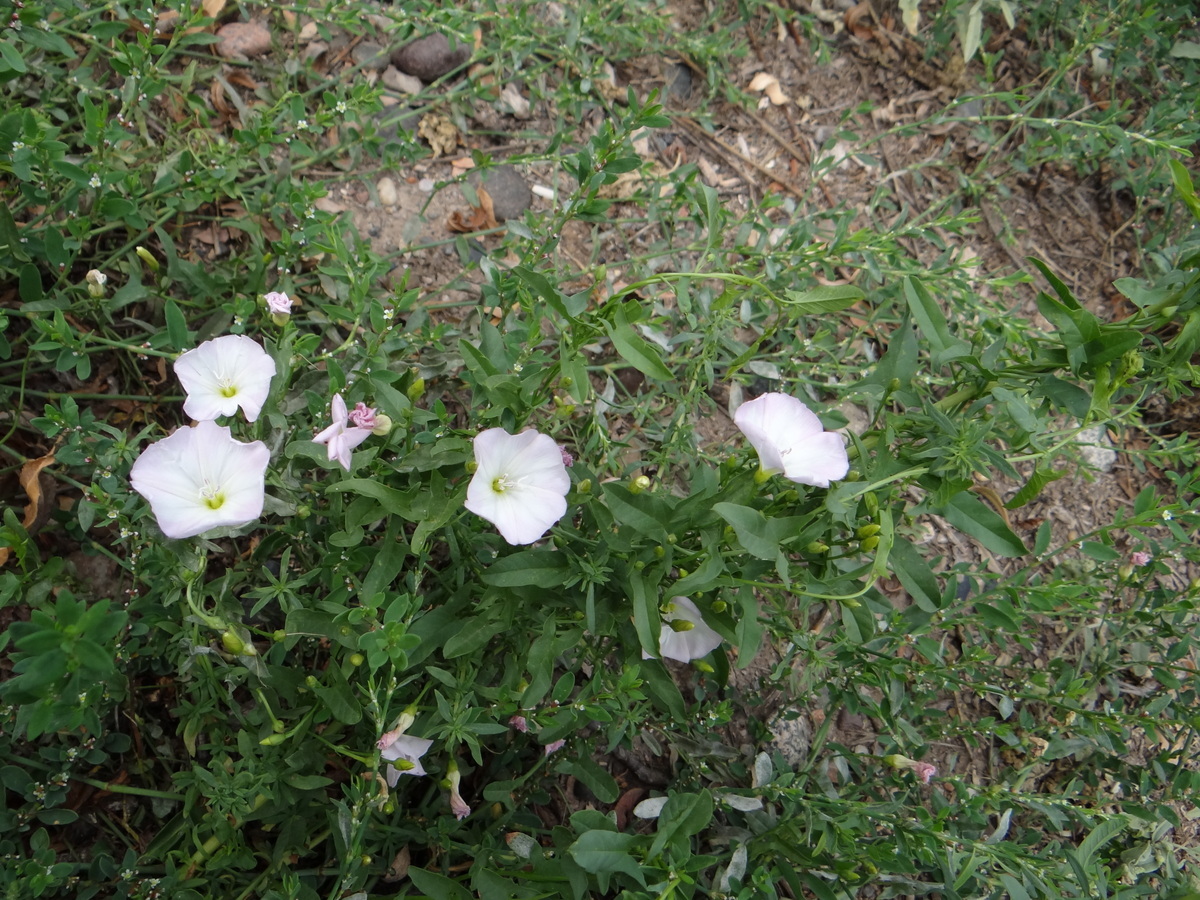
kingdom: Plantae
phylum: Tracheophyta
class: Magnoliopsida
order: Solanales
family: Convolvulaceae
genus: Convolvulus
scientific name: Convolvulus arvensis
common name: Field bindweed
